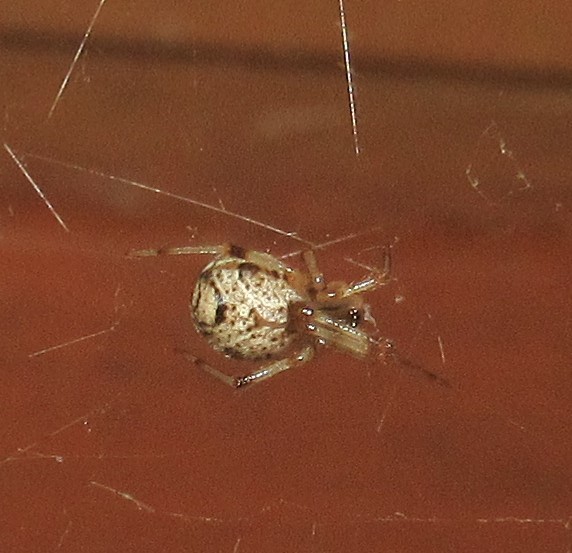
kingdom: Animalia
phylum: Arthropoda
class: Arachnida
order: Araneae
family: Theridiidae
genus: Parasteatoda
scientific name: Parasteatoda tepidariorum
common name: Common house spider
